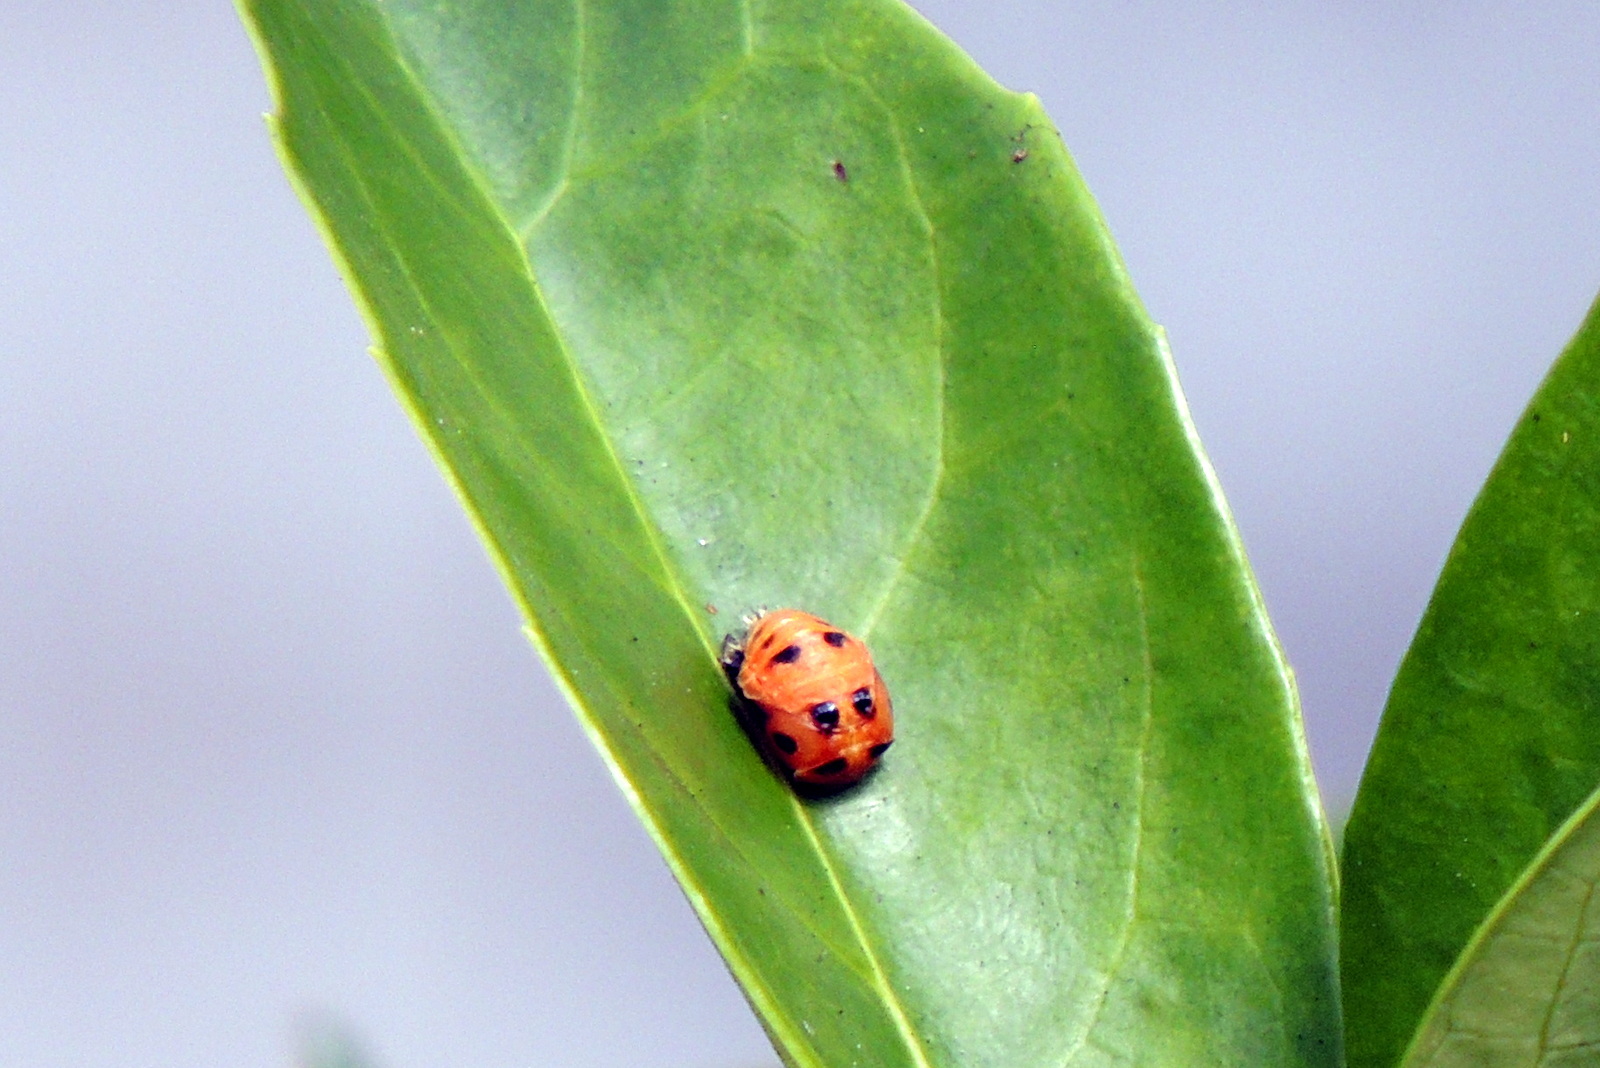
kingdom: Animalia
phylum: Arthropoda
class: Insecta
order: Coleoptera
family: Coccinellidae
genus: Harmonia
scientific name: Harmonia axyridis
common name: Harlequin ladybird
